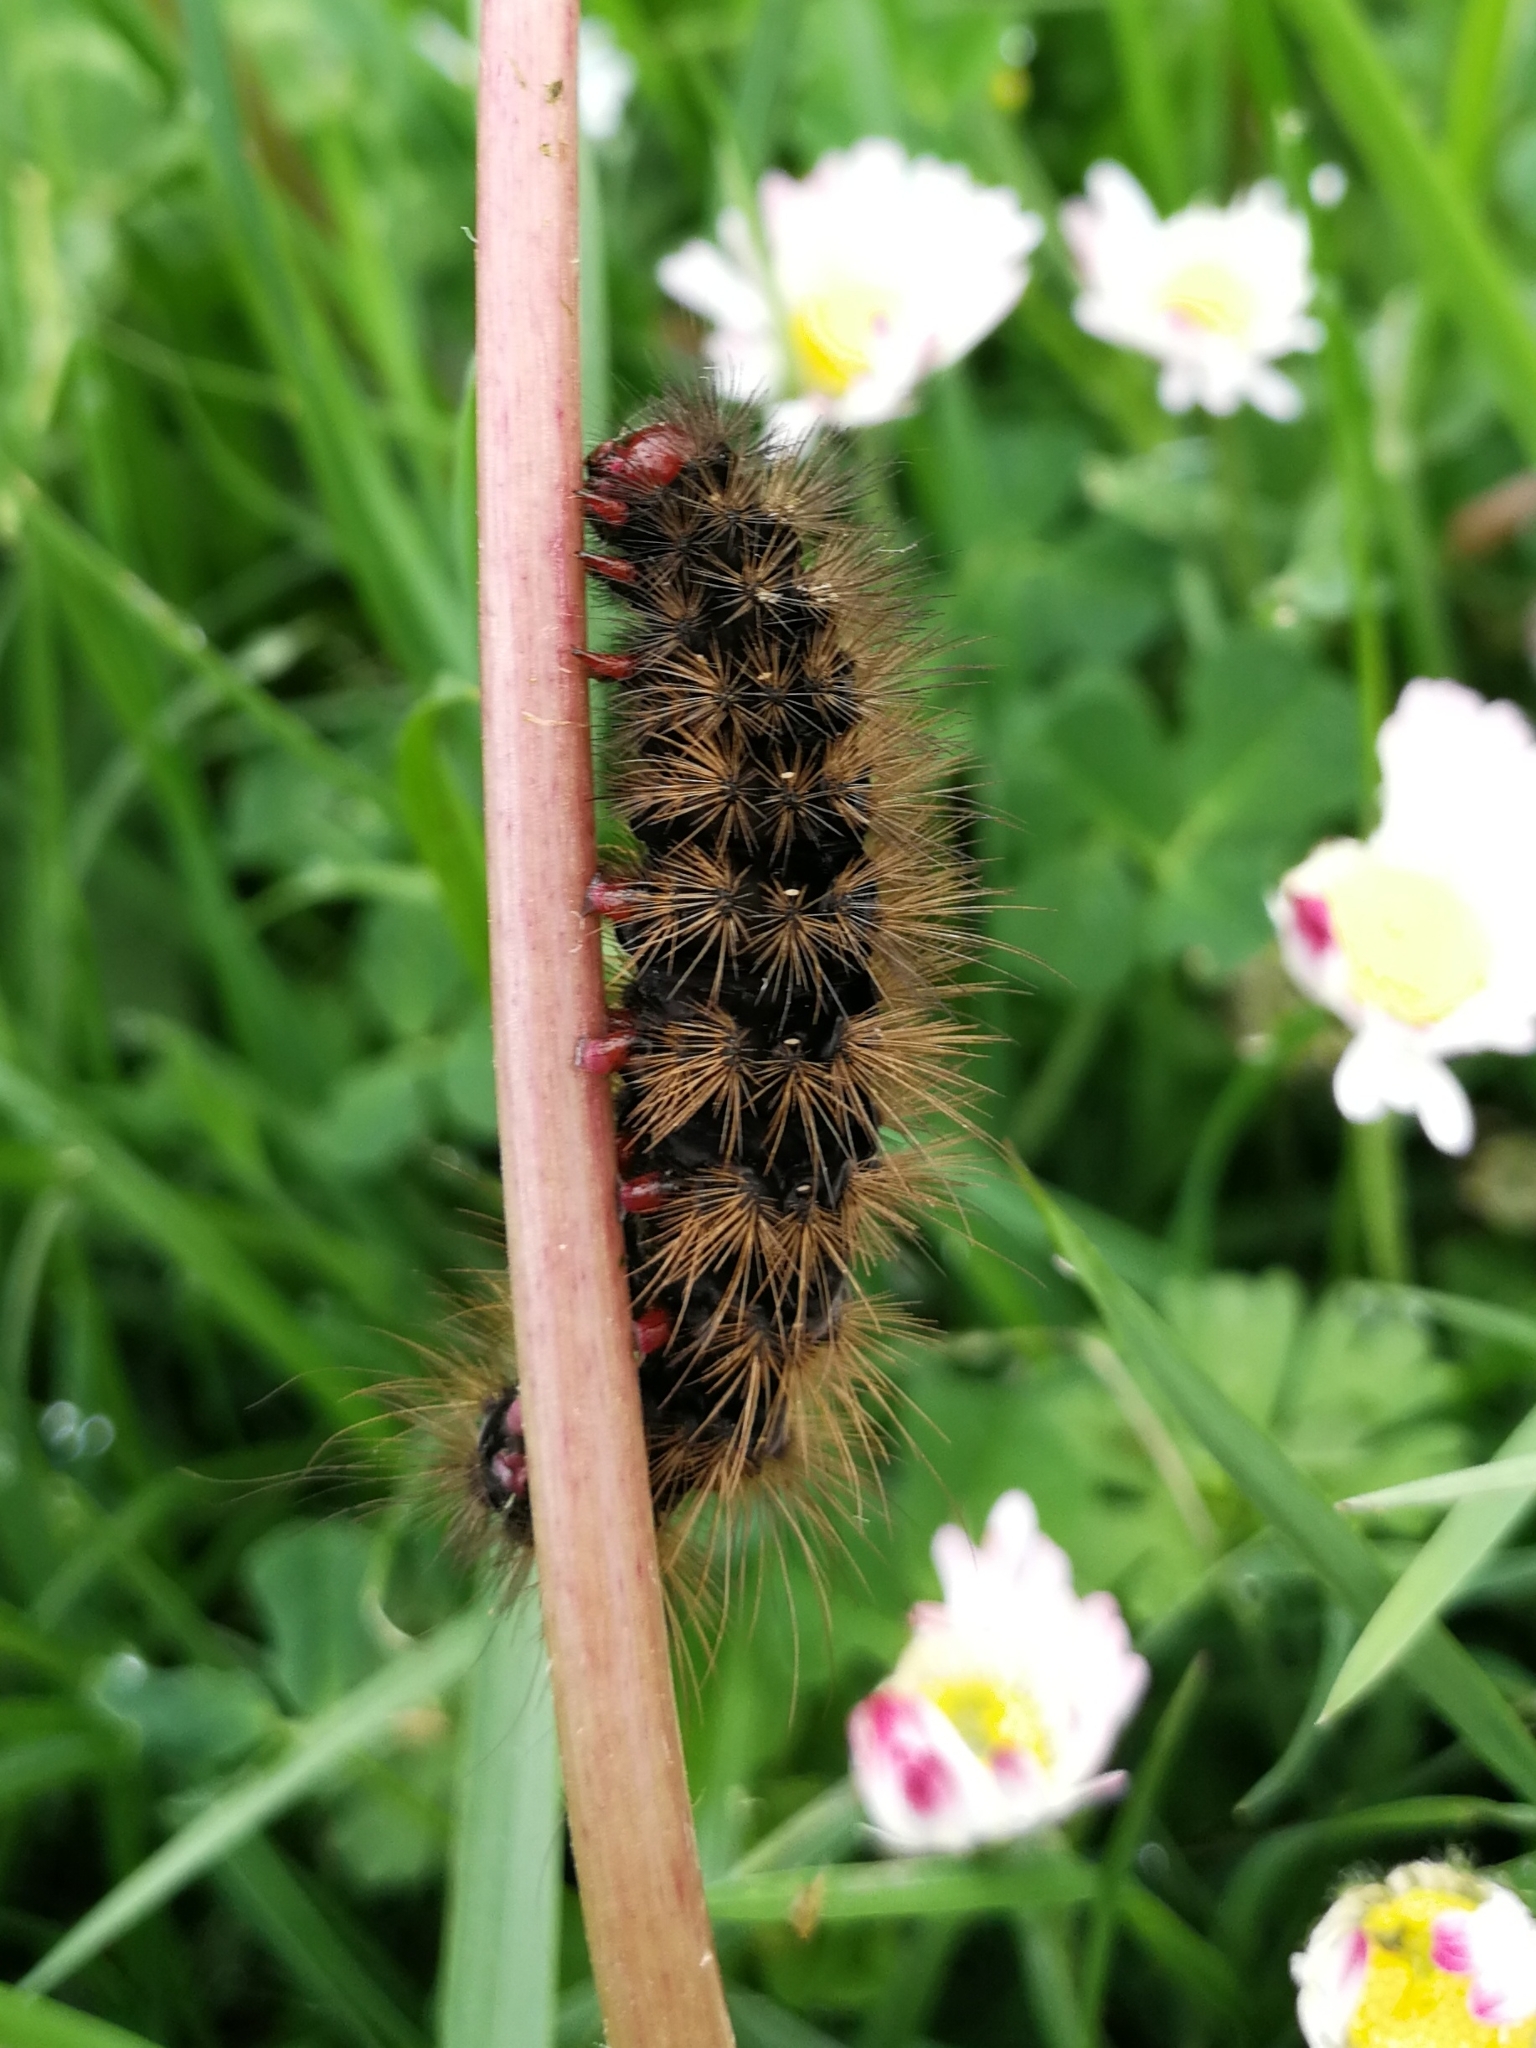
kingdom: Animalia
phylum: Arthropoda
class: Insecta
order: Lepidoptera
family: Erebidae
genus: Epicallia
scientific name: Epicallia villica
